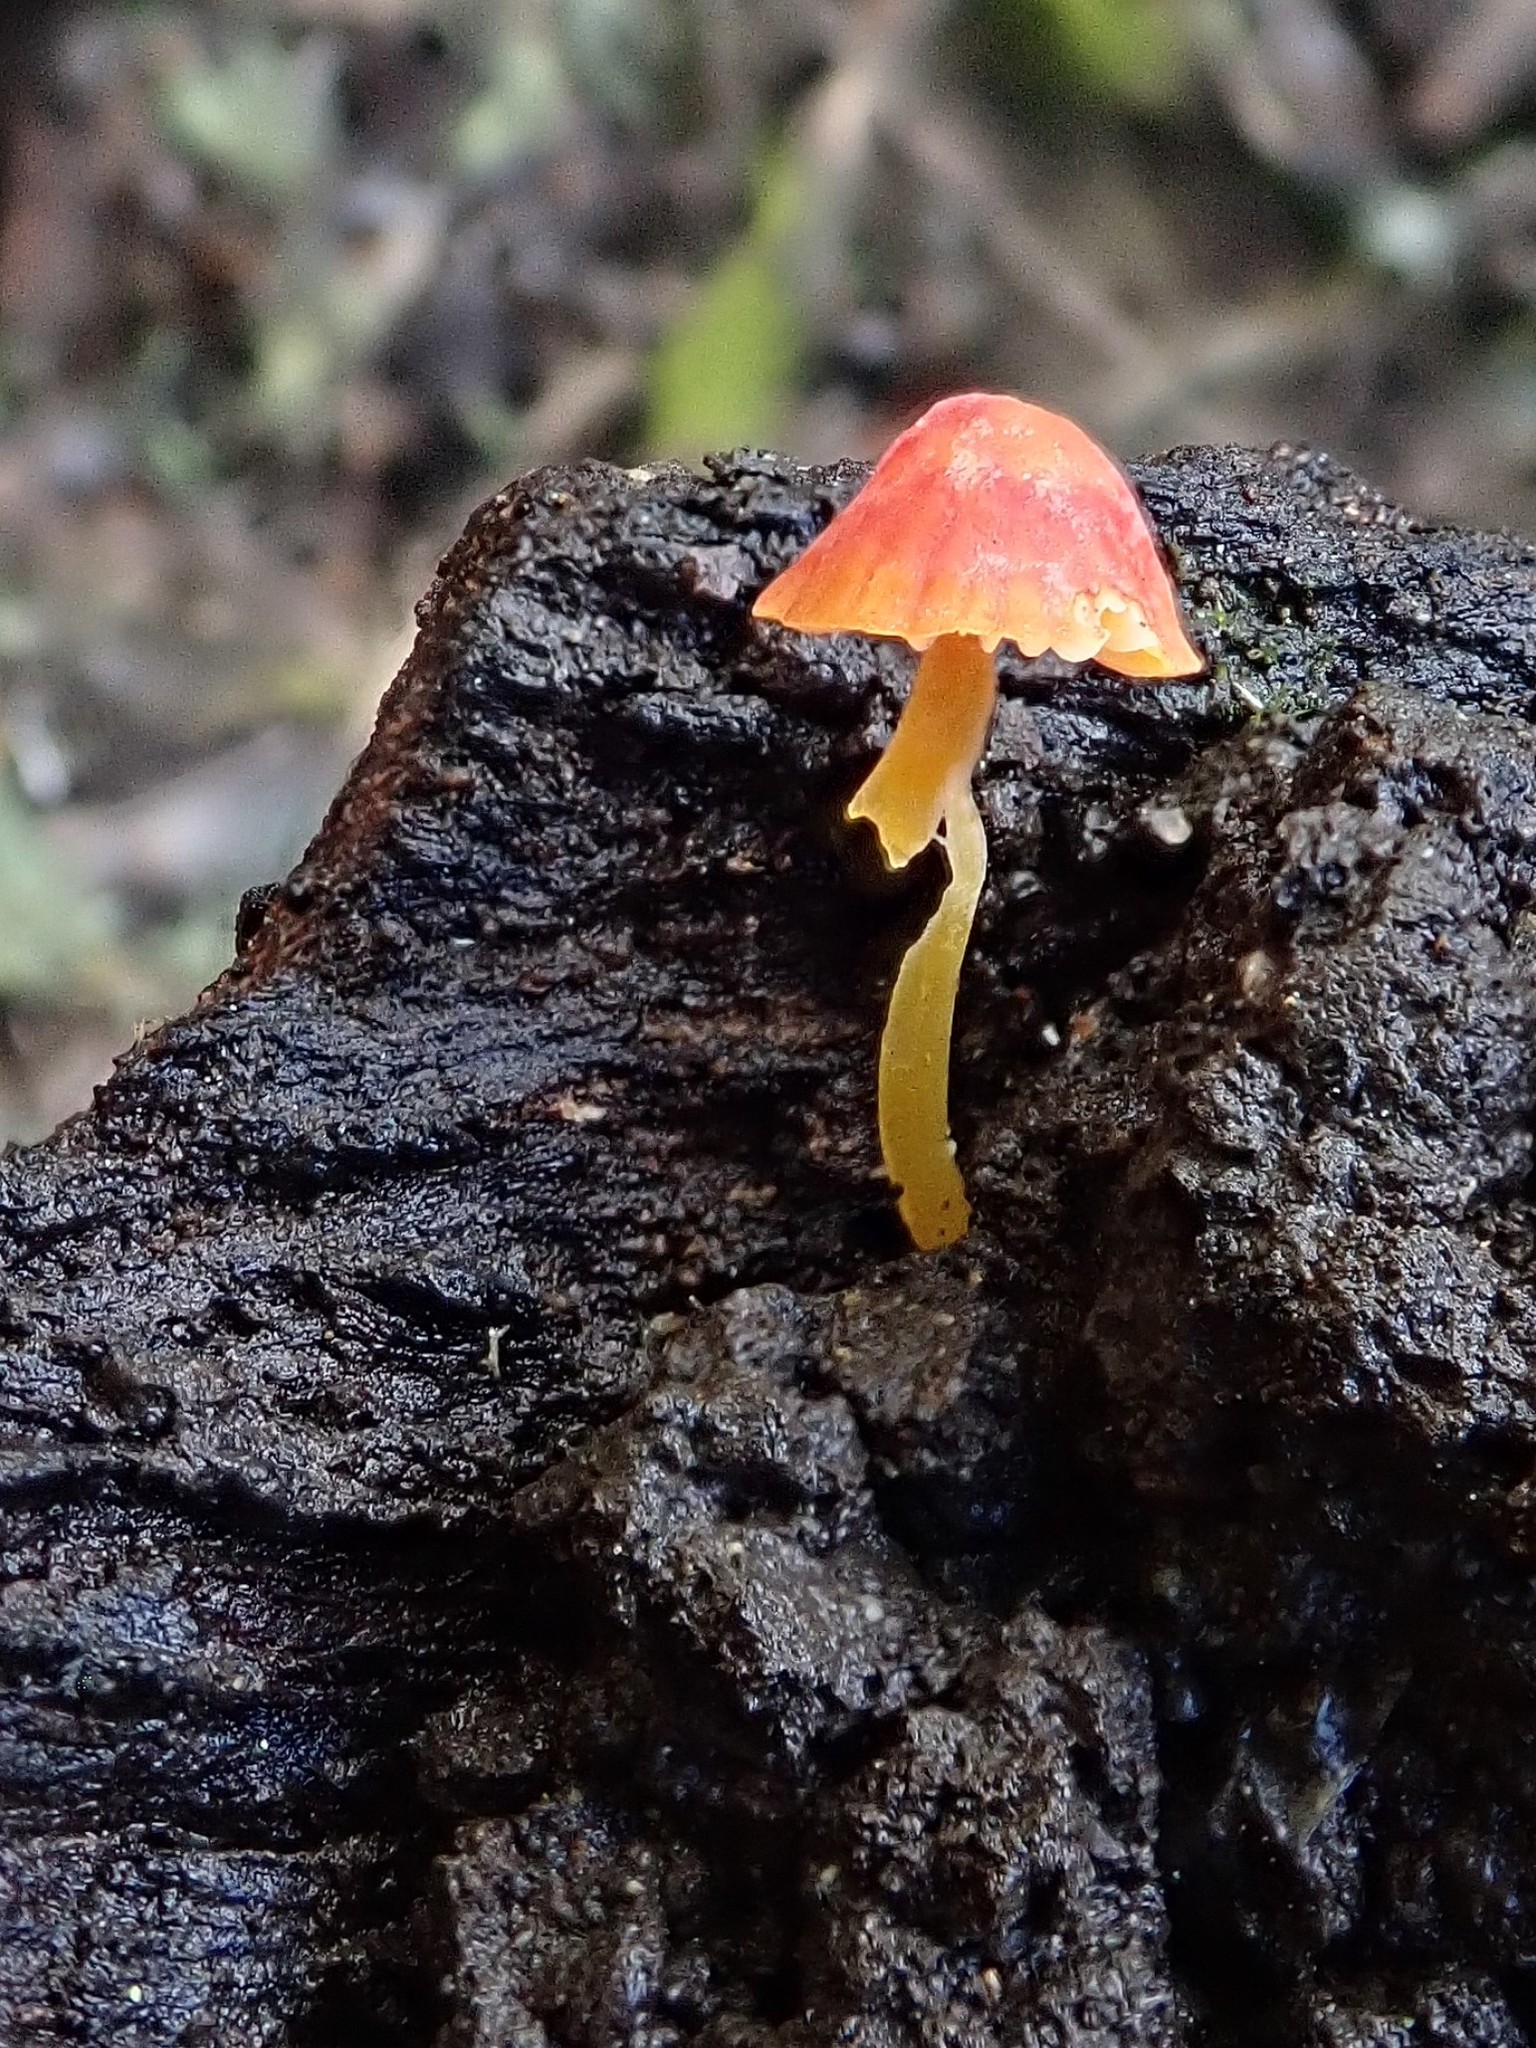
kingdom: Fungi
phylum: Basidiomycota
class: Agaricomycetes
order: Agaricales
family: Mycenaceae
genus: Mycena
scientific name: Mycena acicula
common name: Orange bonnet
